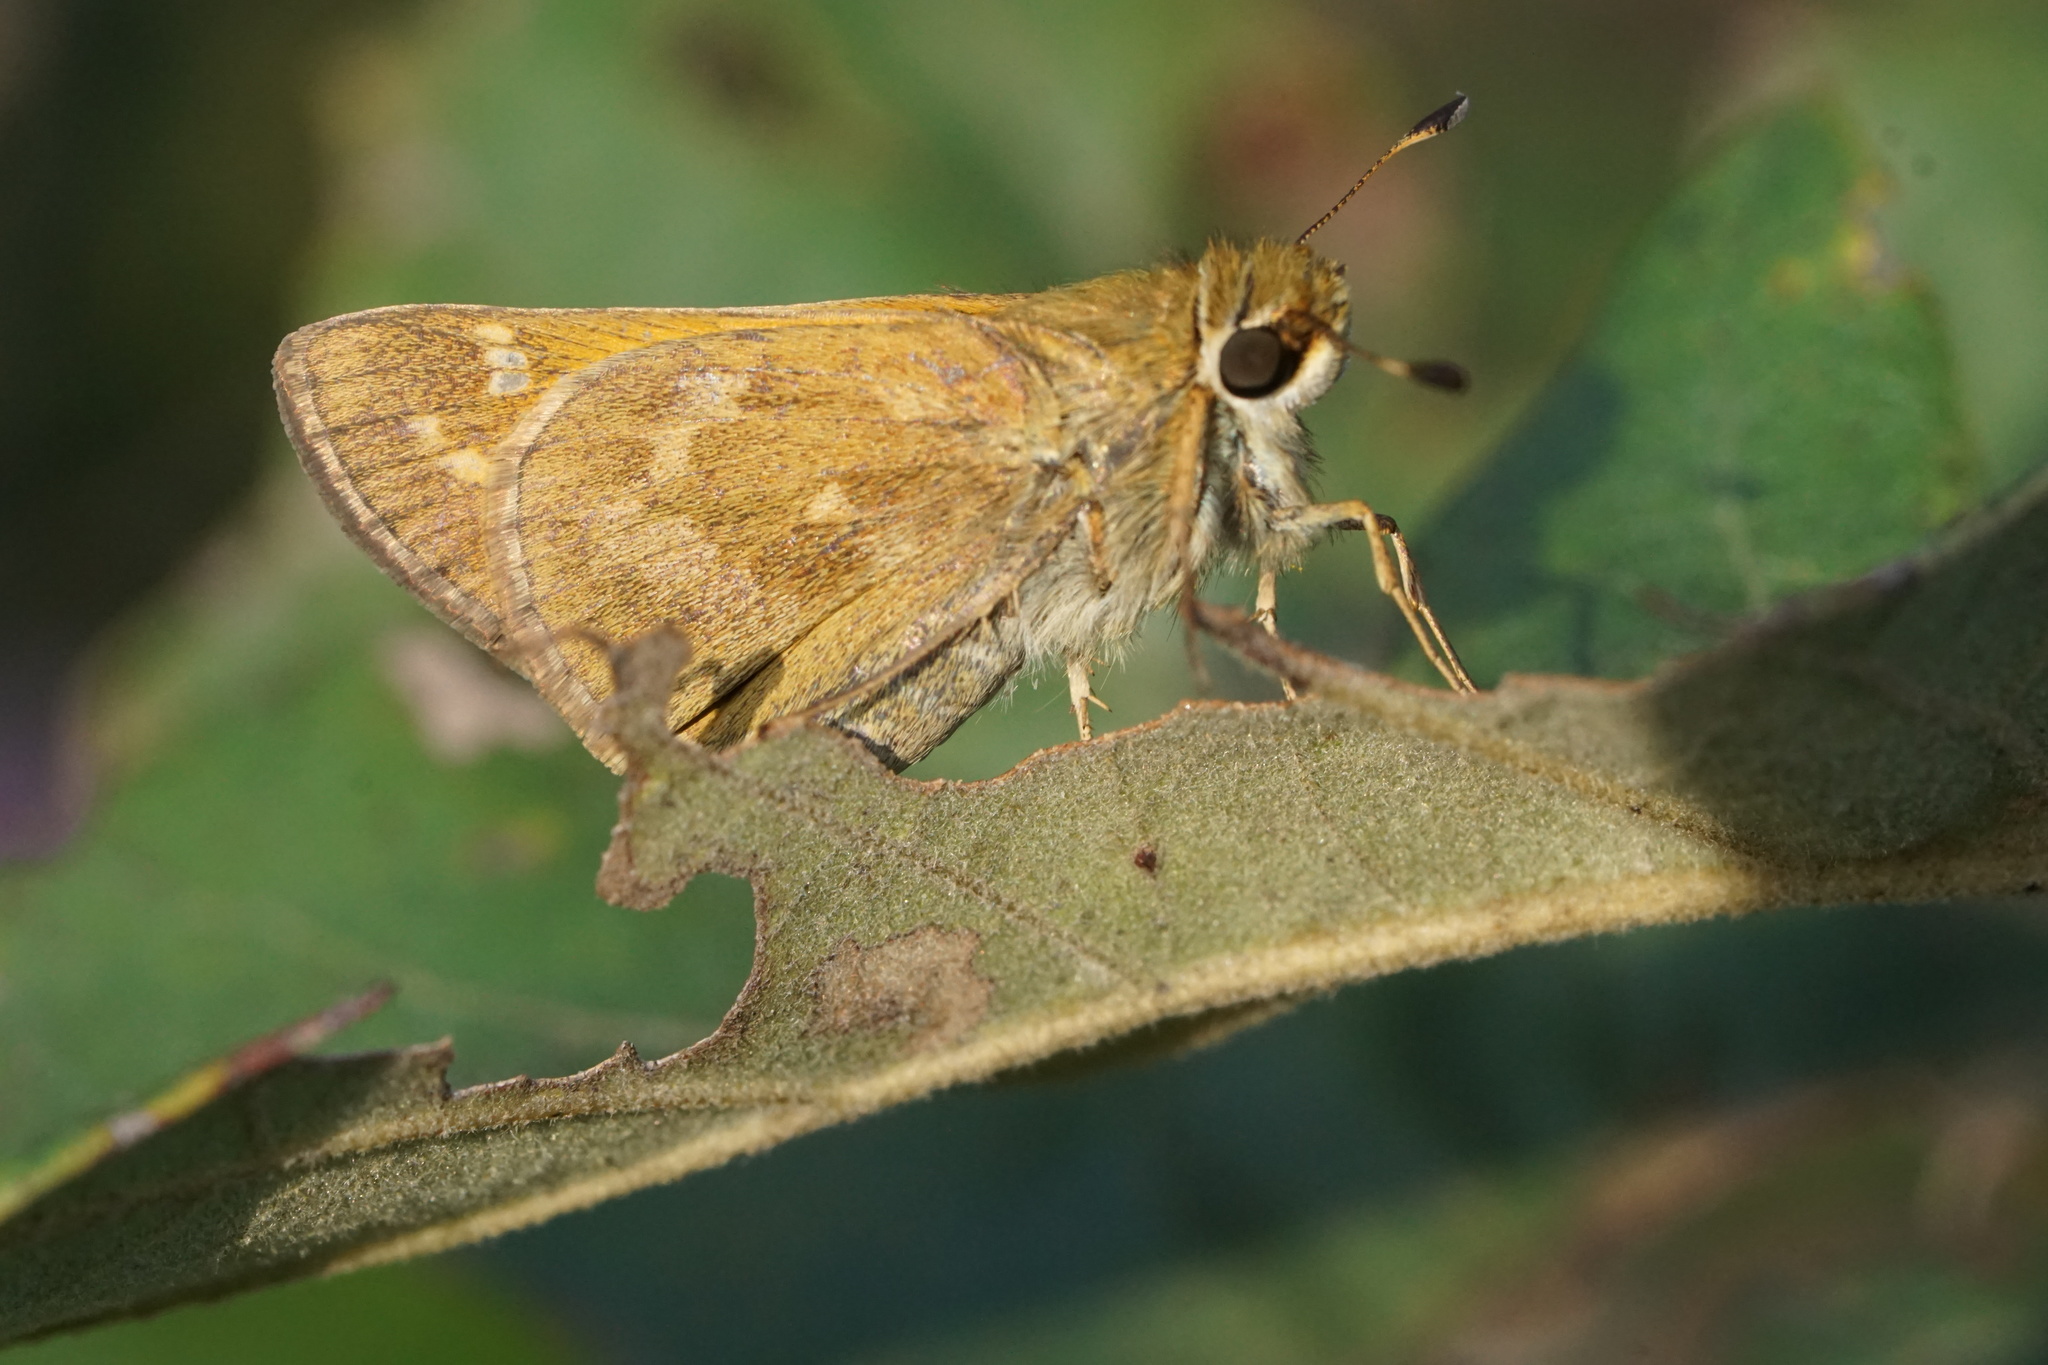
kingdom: Animalia
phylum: Arthropoda
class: Insecta
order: Lepidoptera
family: Hesperiidae
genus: Atalopedes
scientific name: Atalopedes
